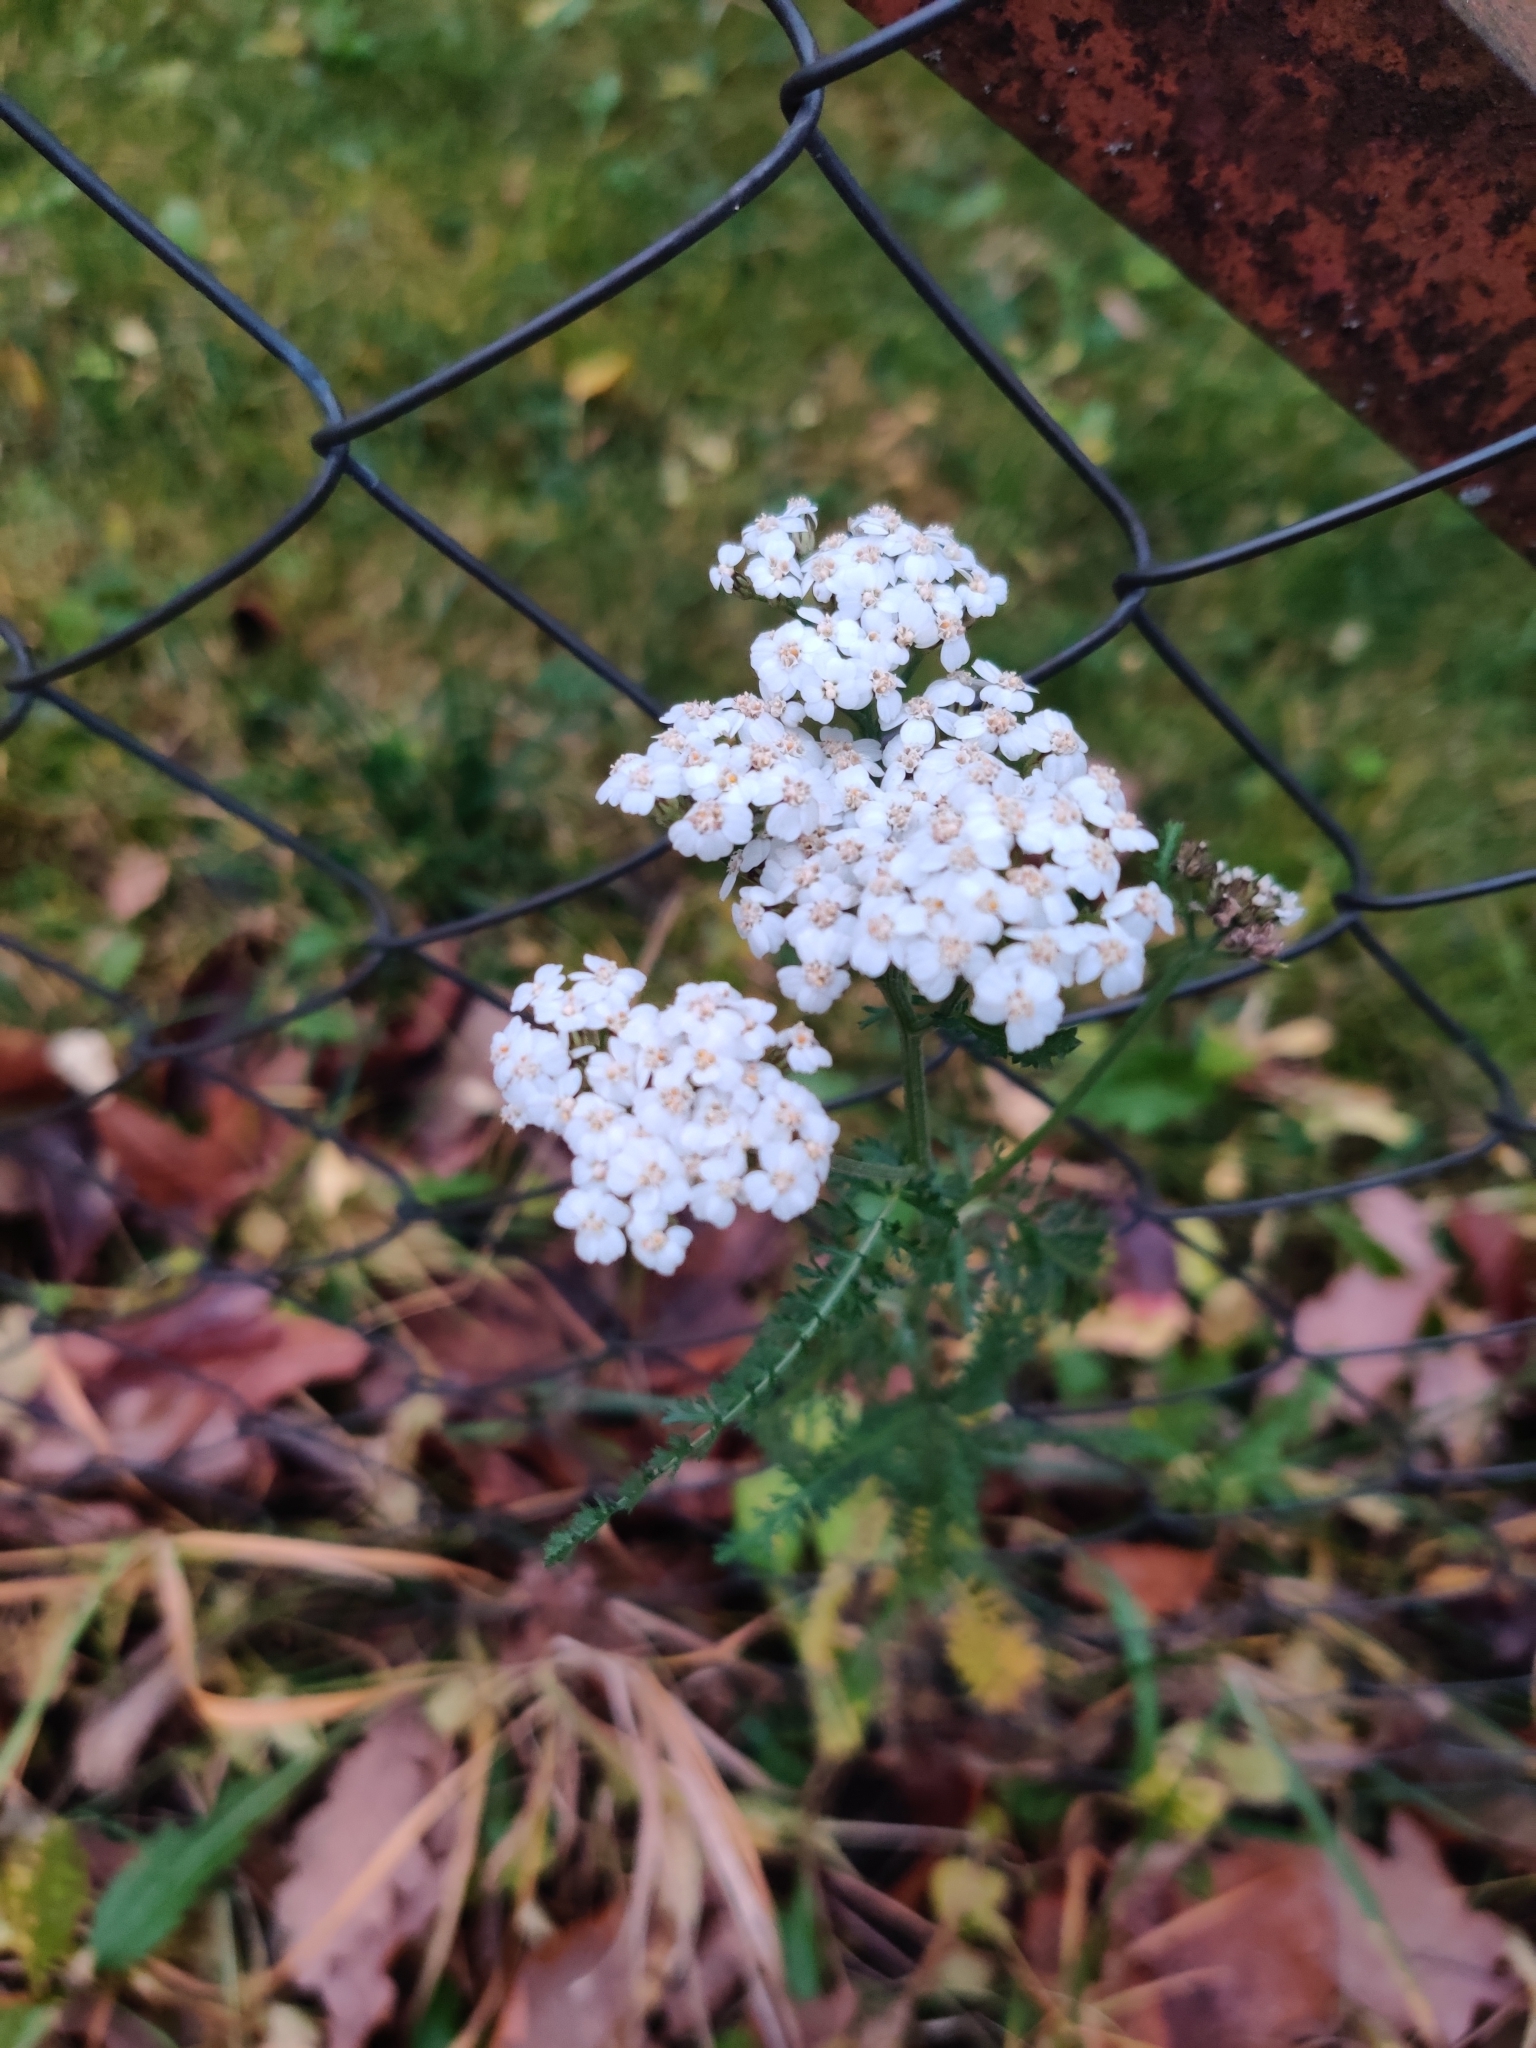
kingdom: Plantae
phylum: Tracheophyta
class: Magnoliopsida
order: Asterales
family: Asteraceae
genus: Achillea
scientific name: Achillea millefolium
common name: Yarrow
